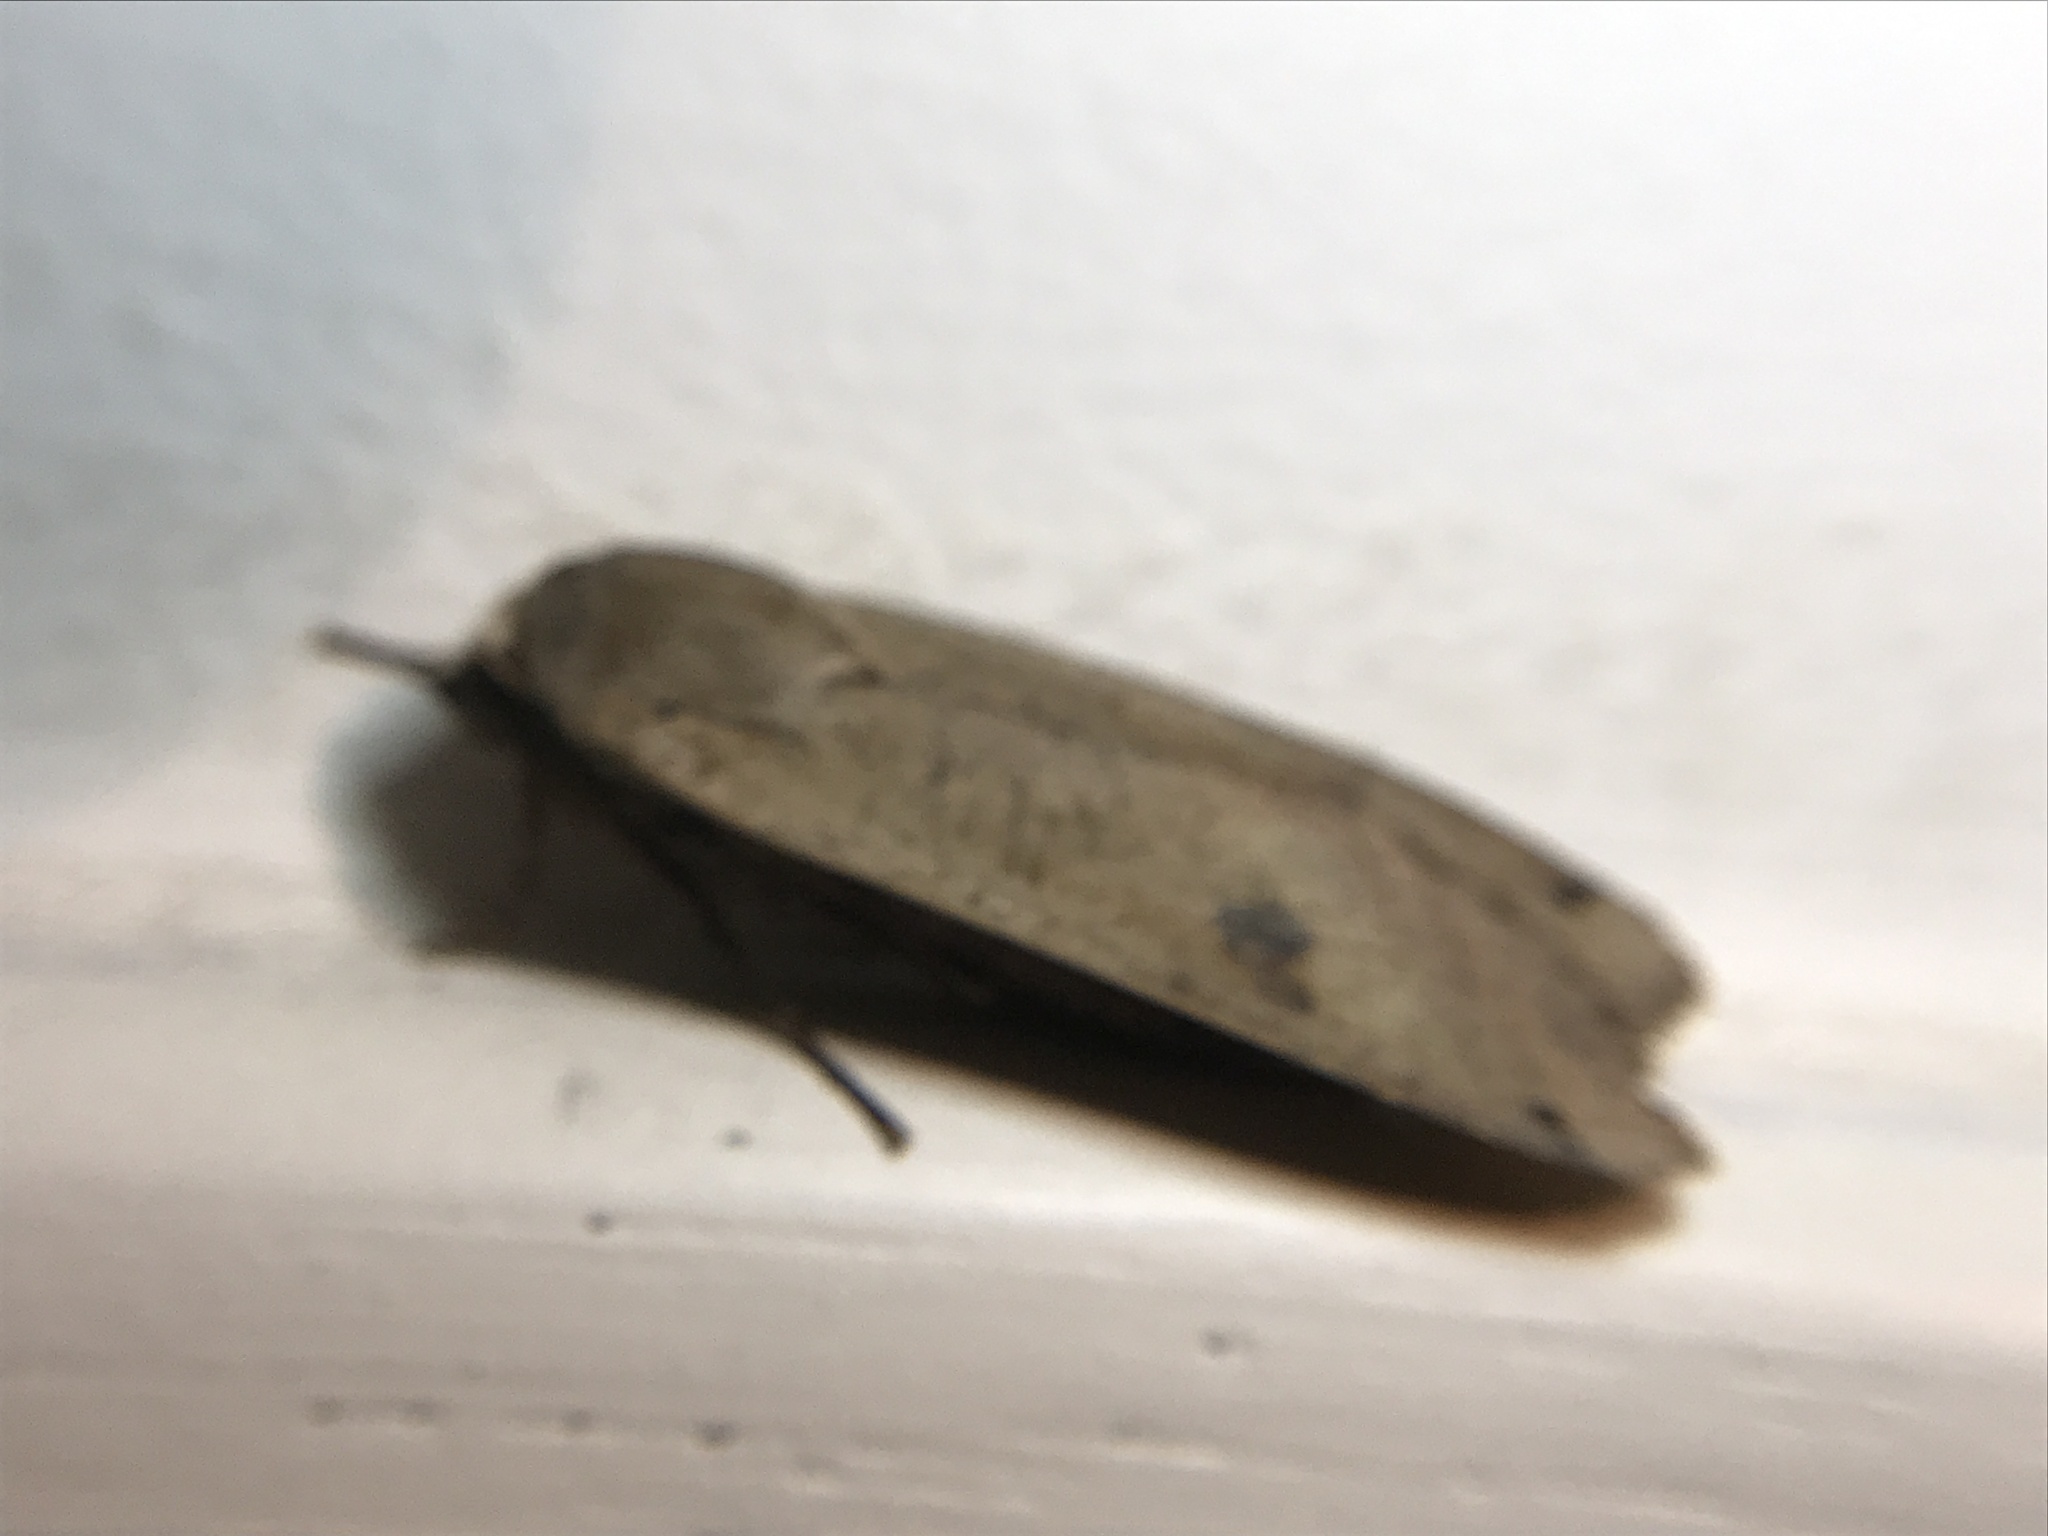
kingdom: Animalia
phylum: Arthropoda
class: Insecta
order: Lepidoptera
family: Noctuidae
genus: Noctua
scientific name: Noctua pronuba
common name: Large yellow underwing
